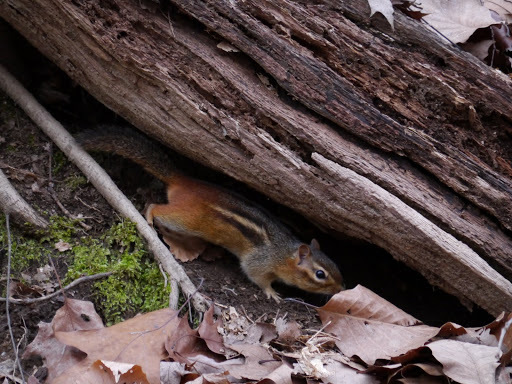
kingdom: Animalia
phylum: Chordata
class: Mammalia
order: Rodentia
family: Sciuridae
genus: Tamias
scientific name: Tamias striatus
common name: Eastern chipmunk
